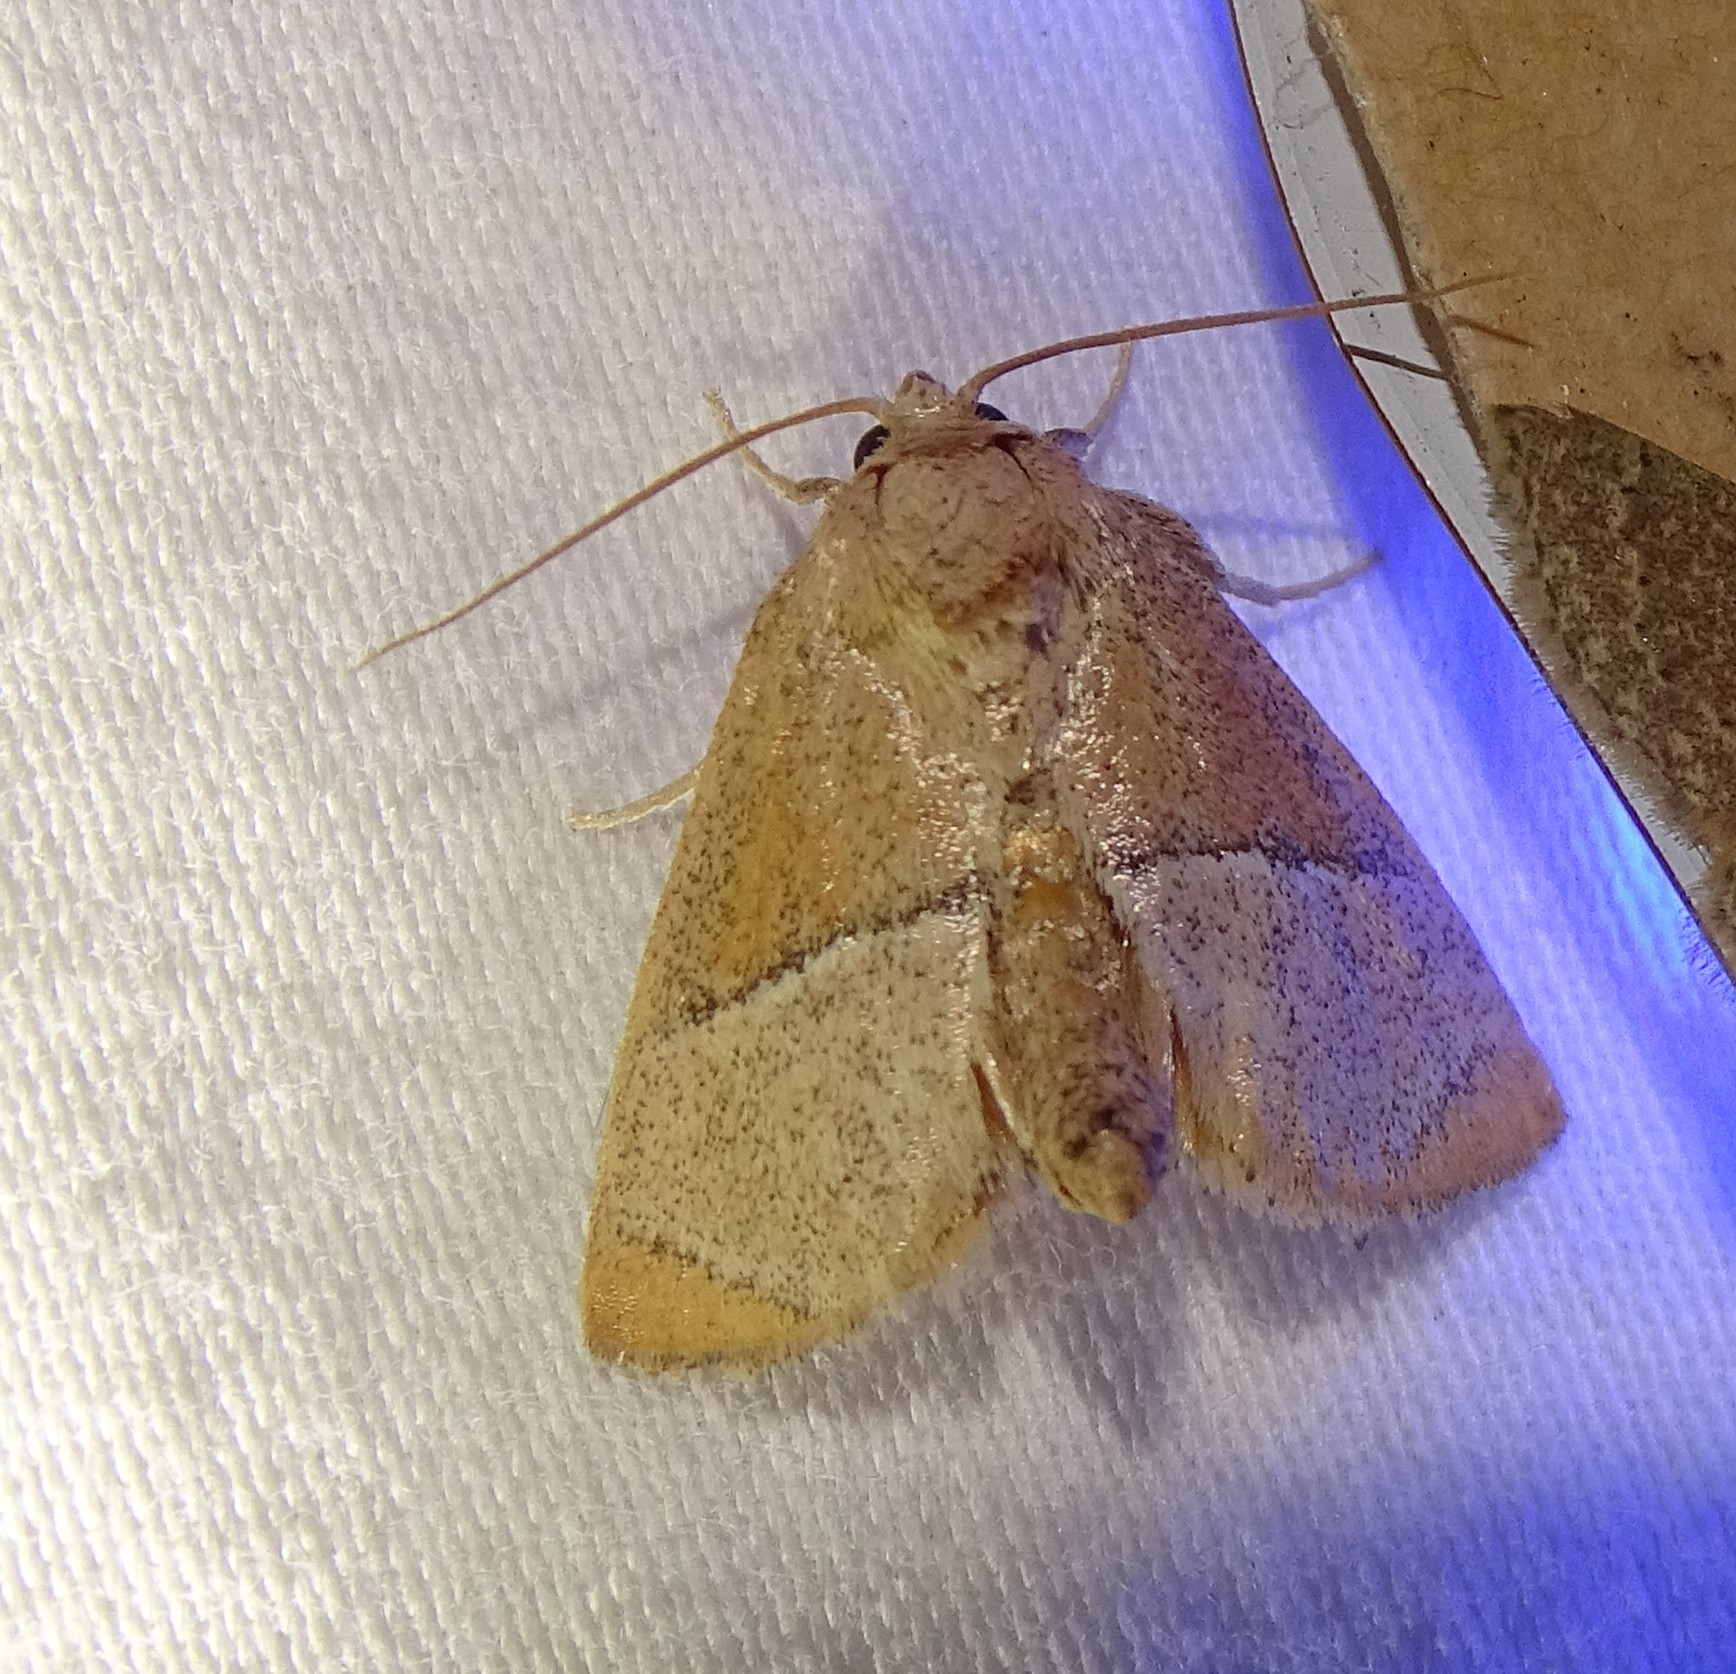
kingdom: Animalia
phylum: Arthropoda
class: Insecta
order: Lepidoptera
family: Limacodidae
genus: Apoda
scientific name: Apoda rectilinea
